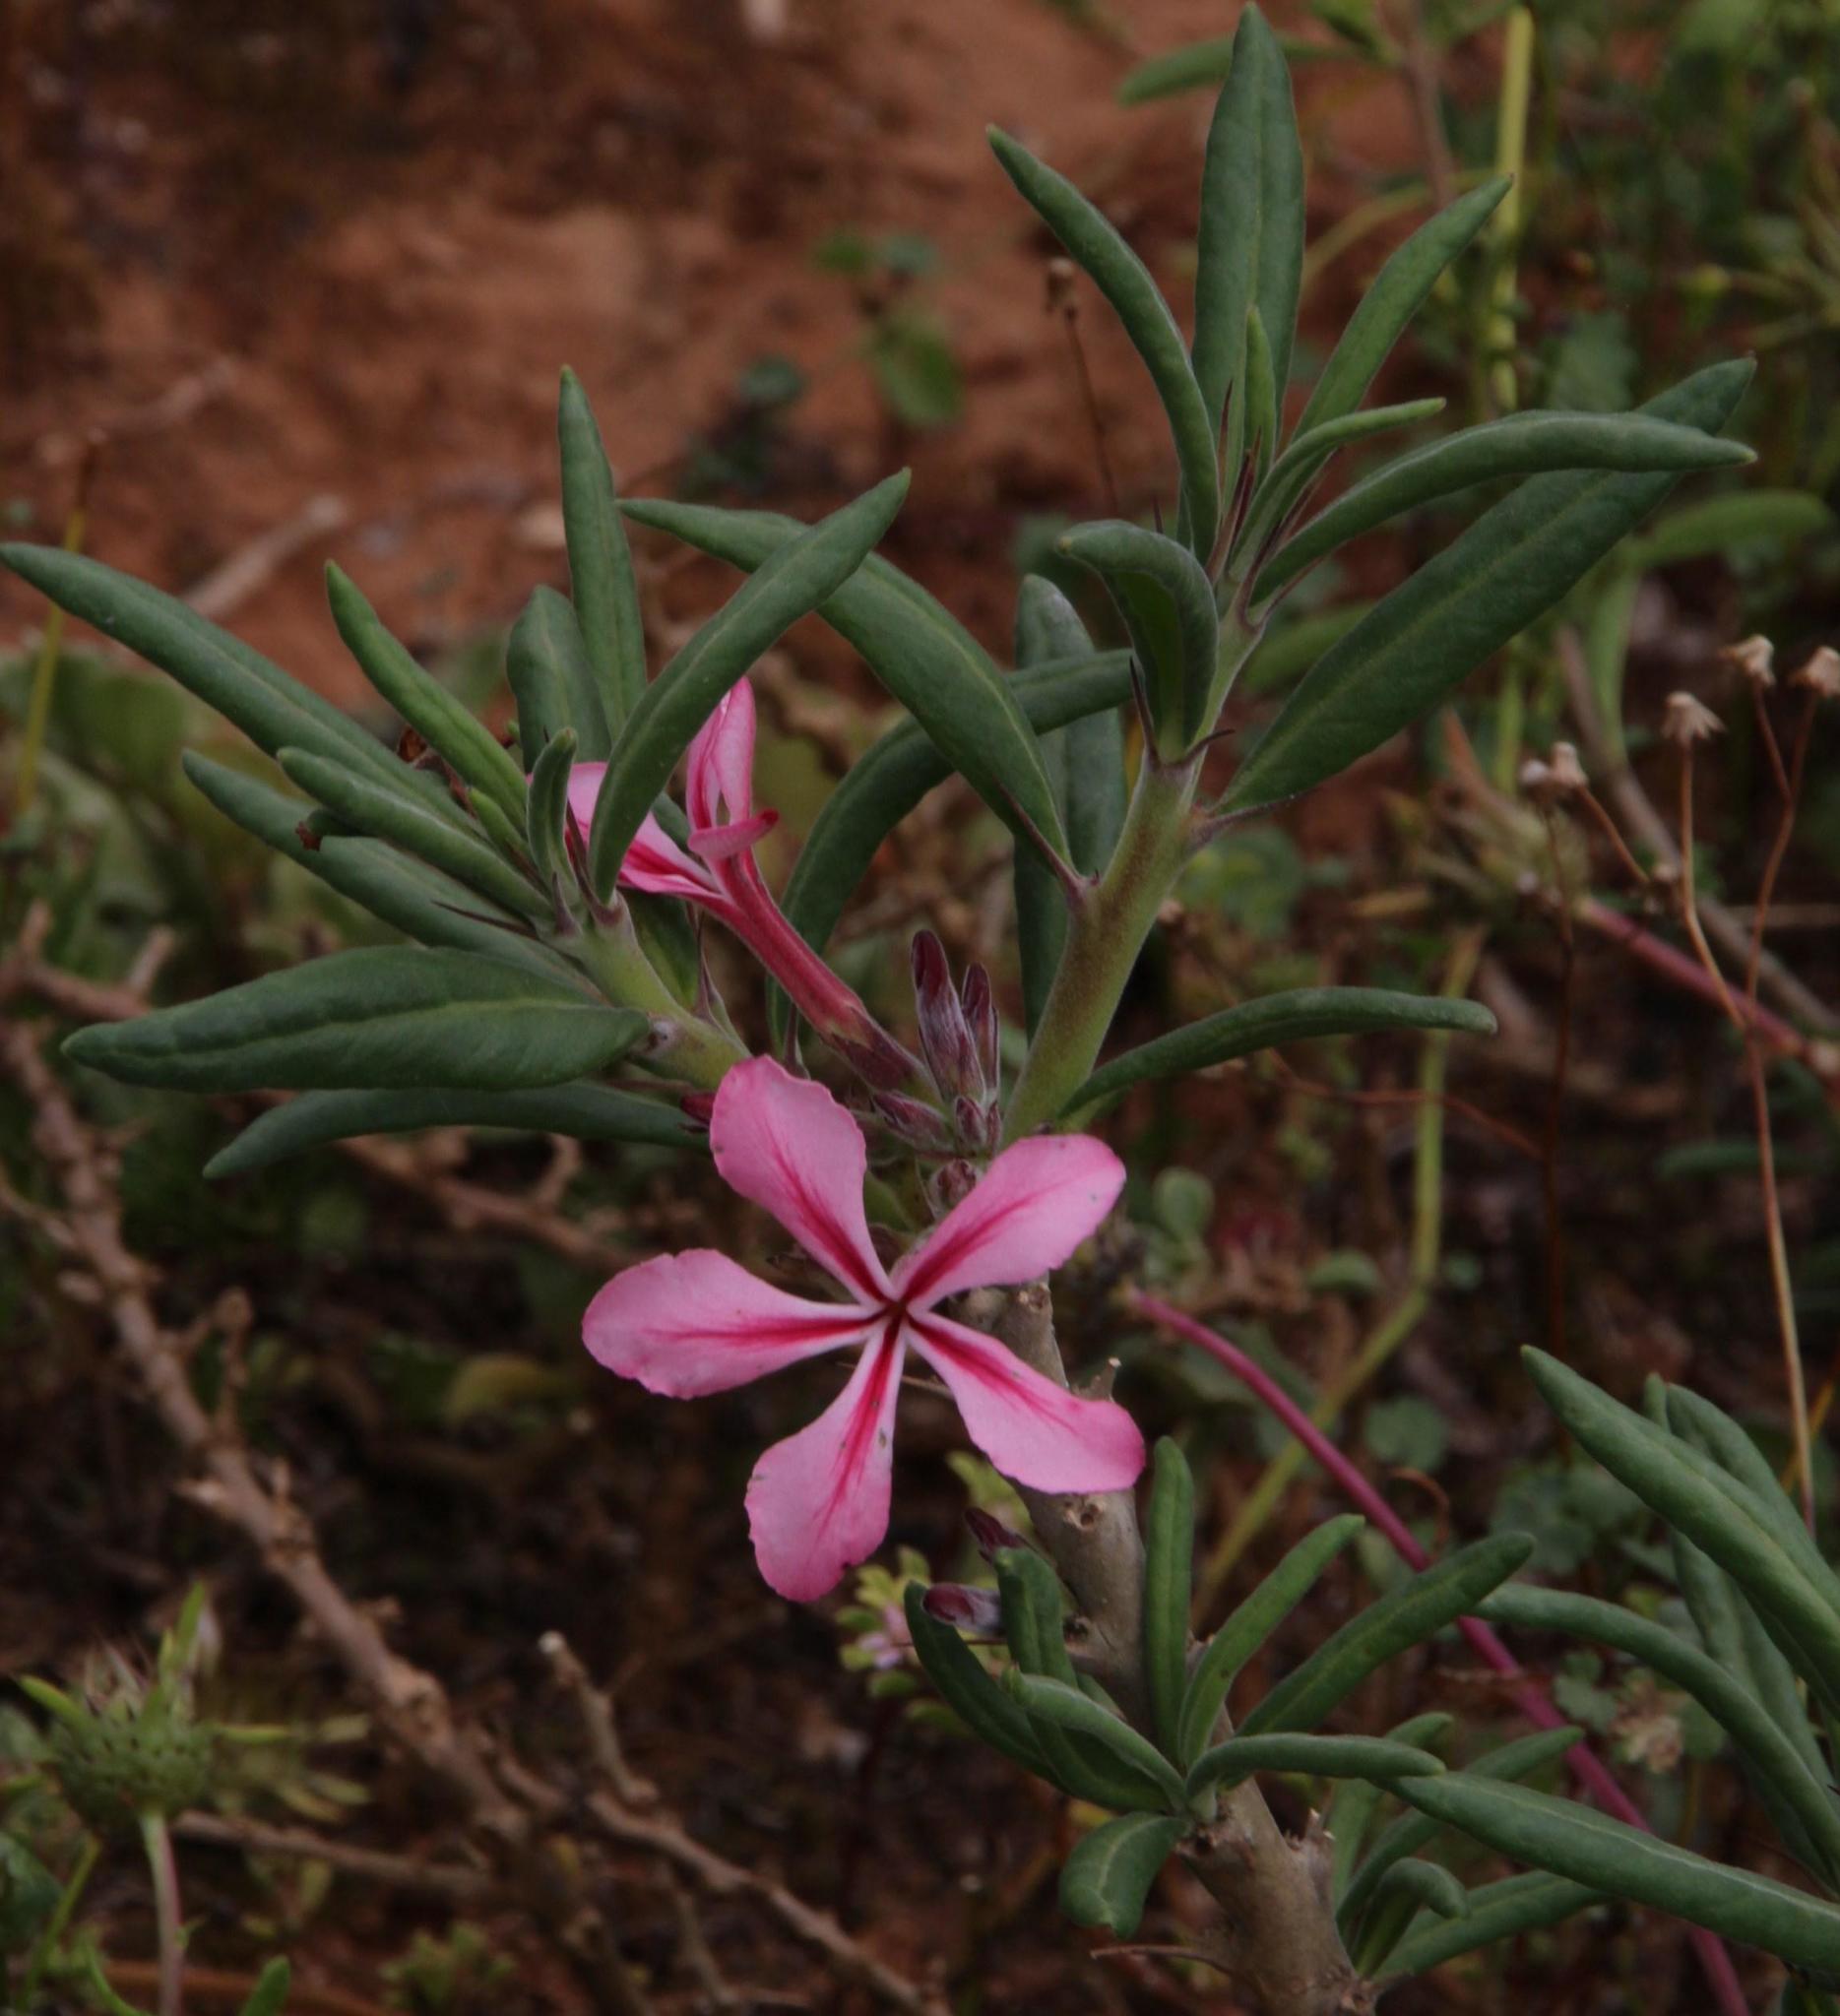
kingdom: Plantae
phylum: Tracheophyta
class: Magnoliopsida
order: Gentianales
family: Apocynaceae
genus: Pachypodium
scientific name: Pachypodium succulentum
